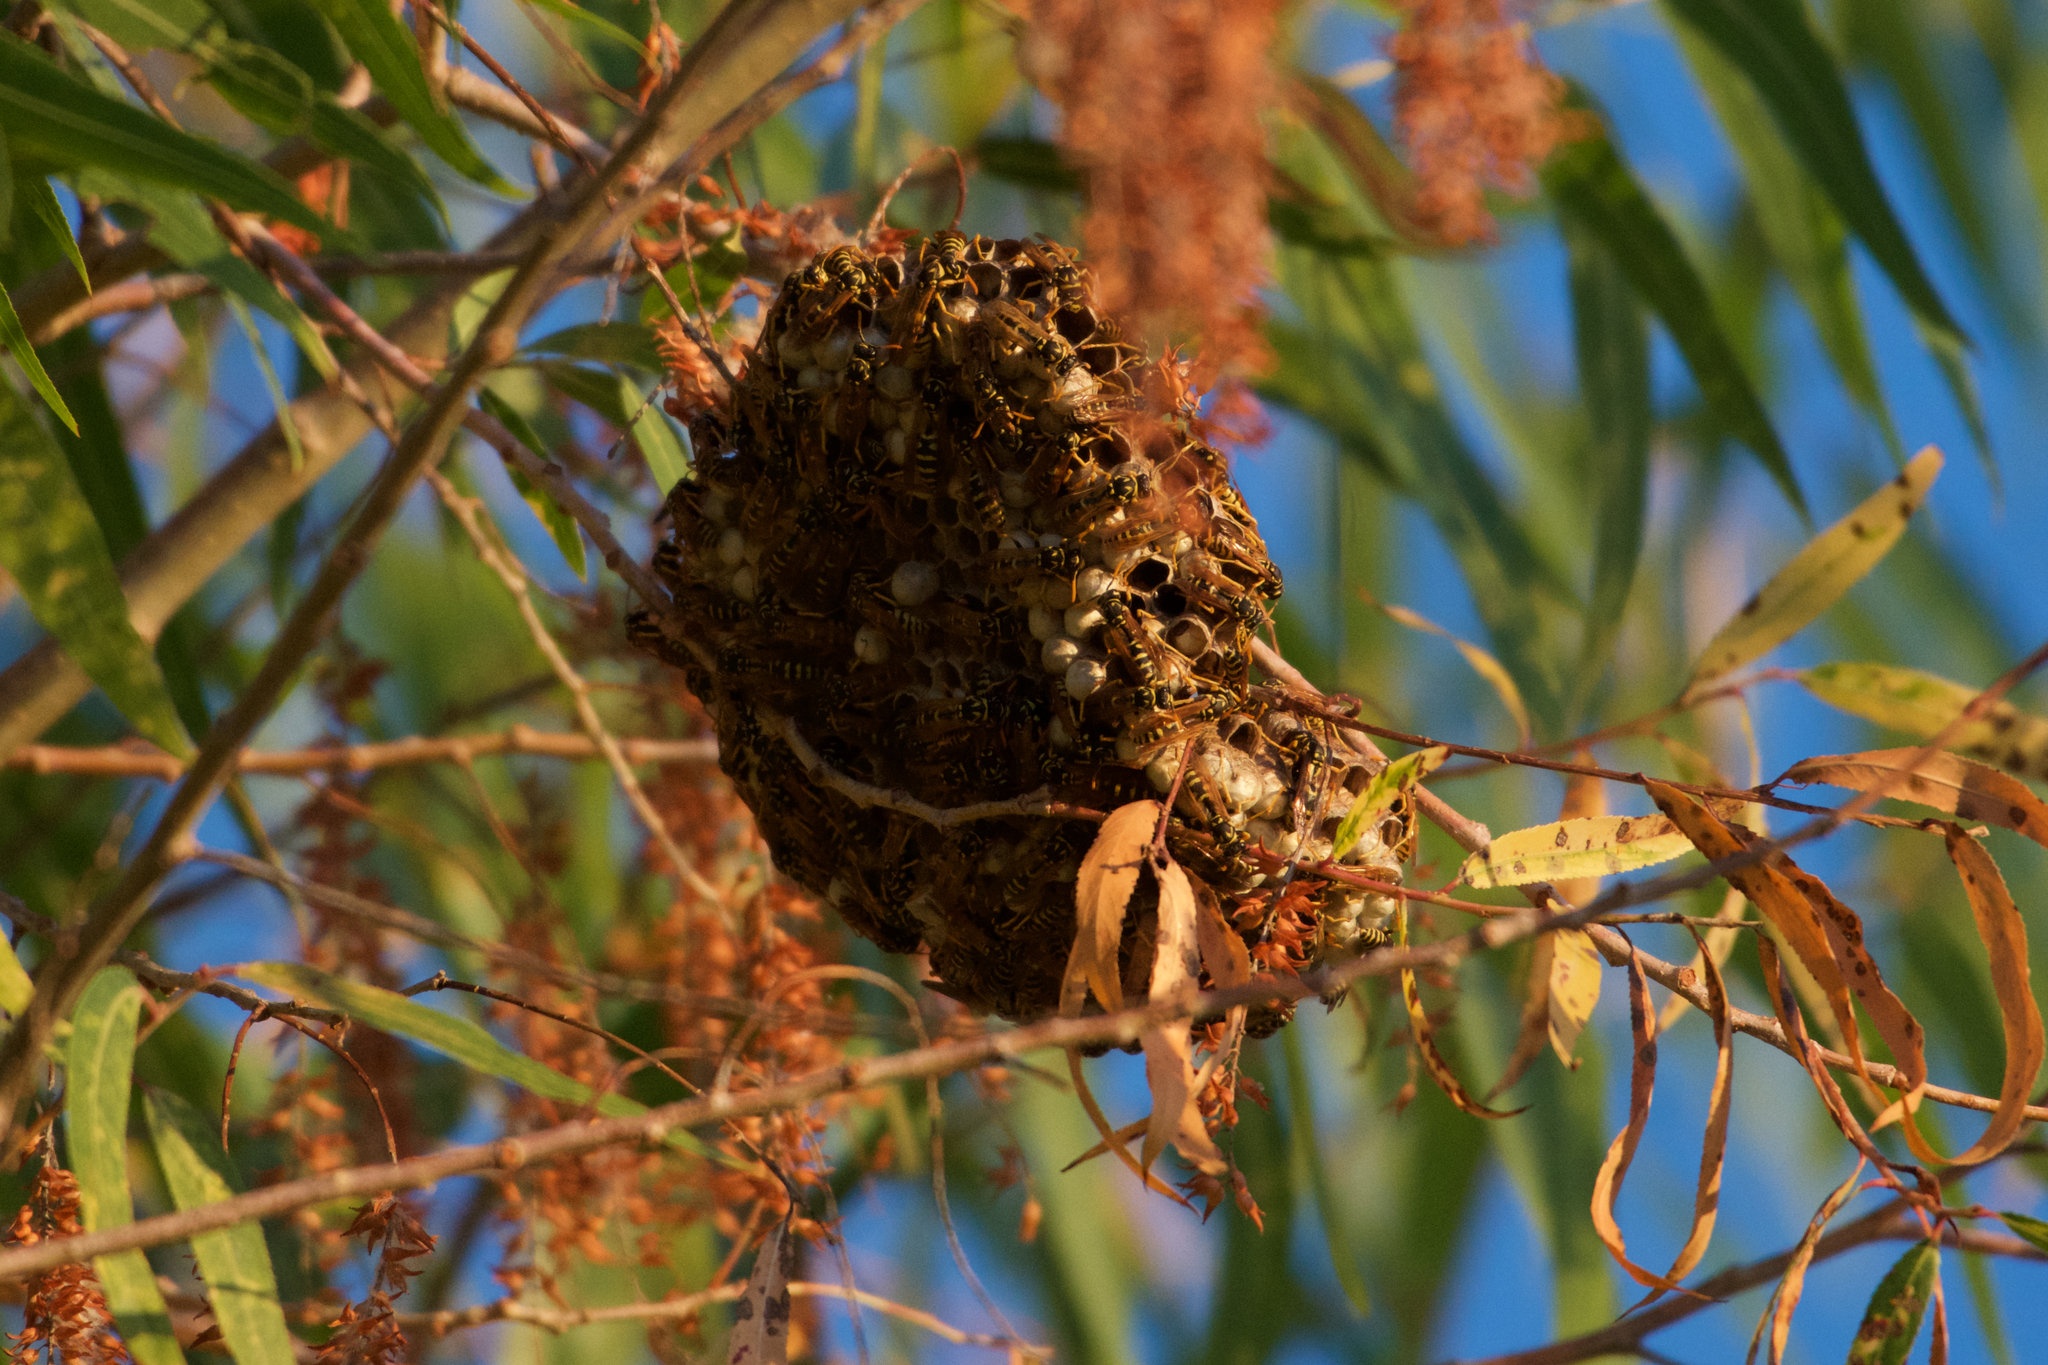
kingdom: Animalia
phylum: Arthropoda
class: Insecta
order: Hymenoptera
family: Eumenidae
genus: Polistes
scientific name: Polistes dominula
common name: Paper wasp
